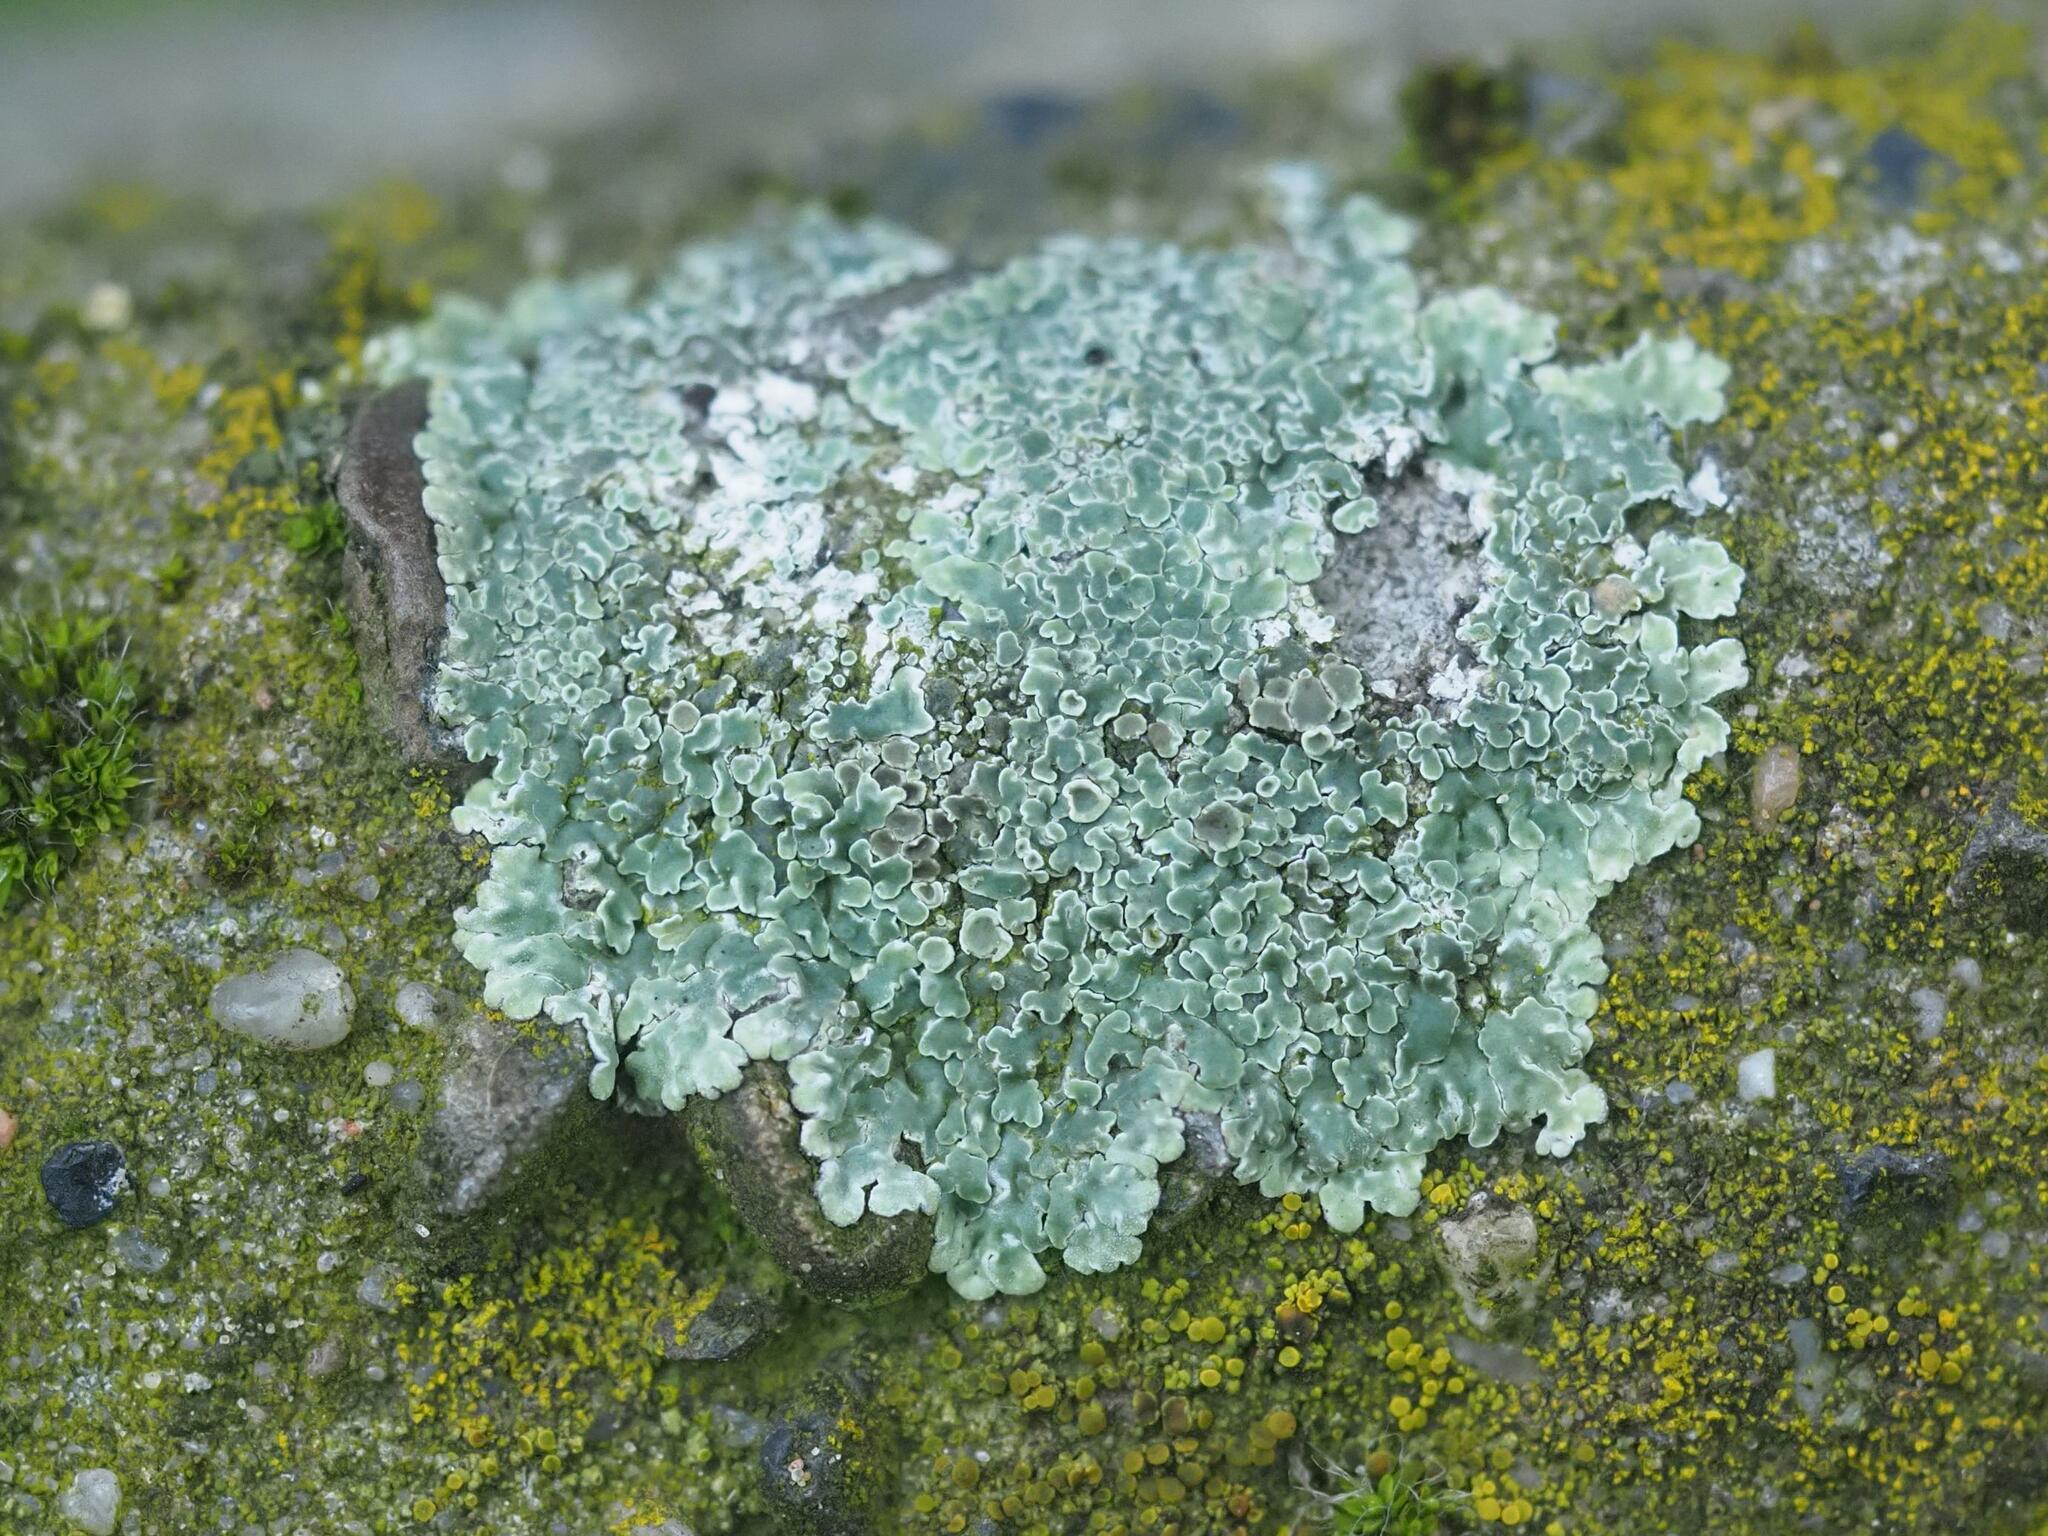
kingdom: Fungi
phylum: Ascomycota
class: Lecanoromycetes
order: Lecanorales
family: Lecanoraceae
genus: Protoparmeliopsis
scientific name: Protoparmeliopsis muralis
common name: Stonewall rim lichen
